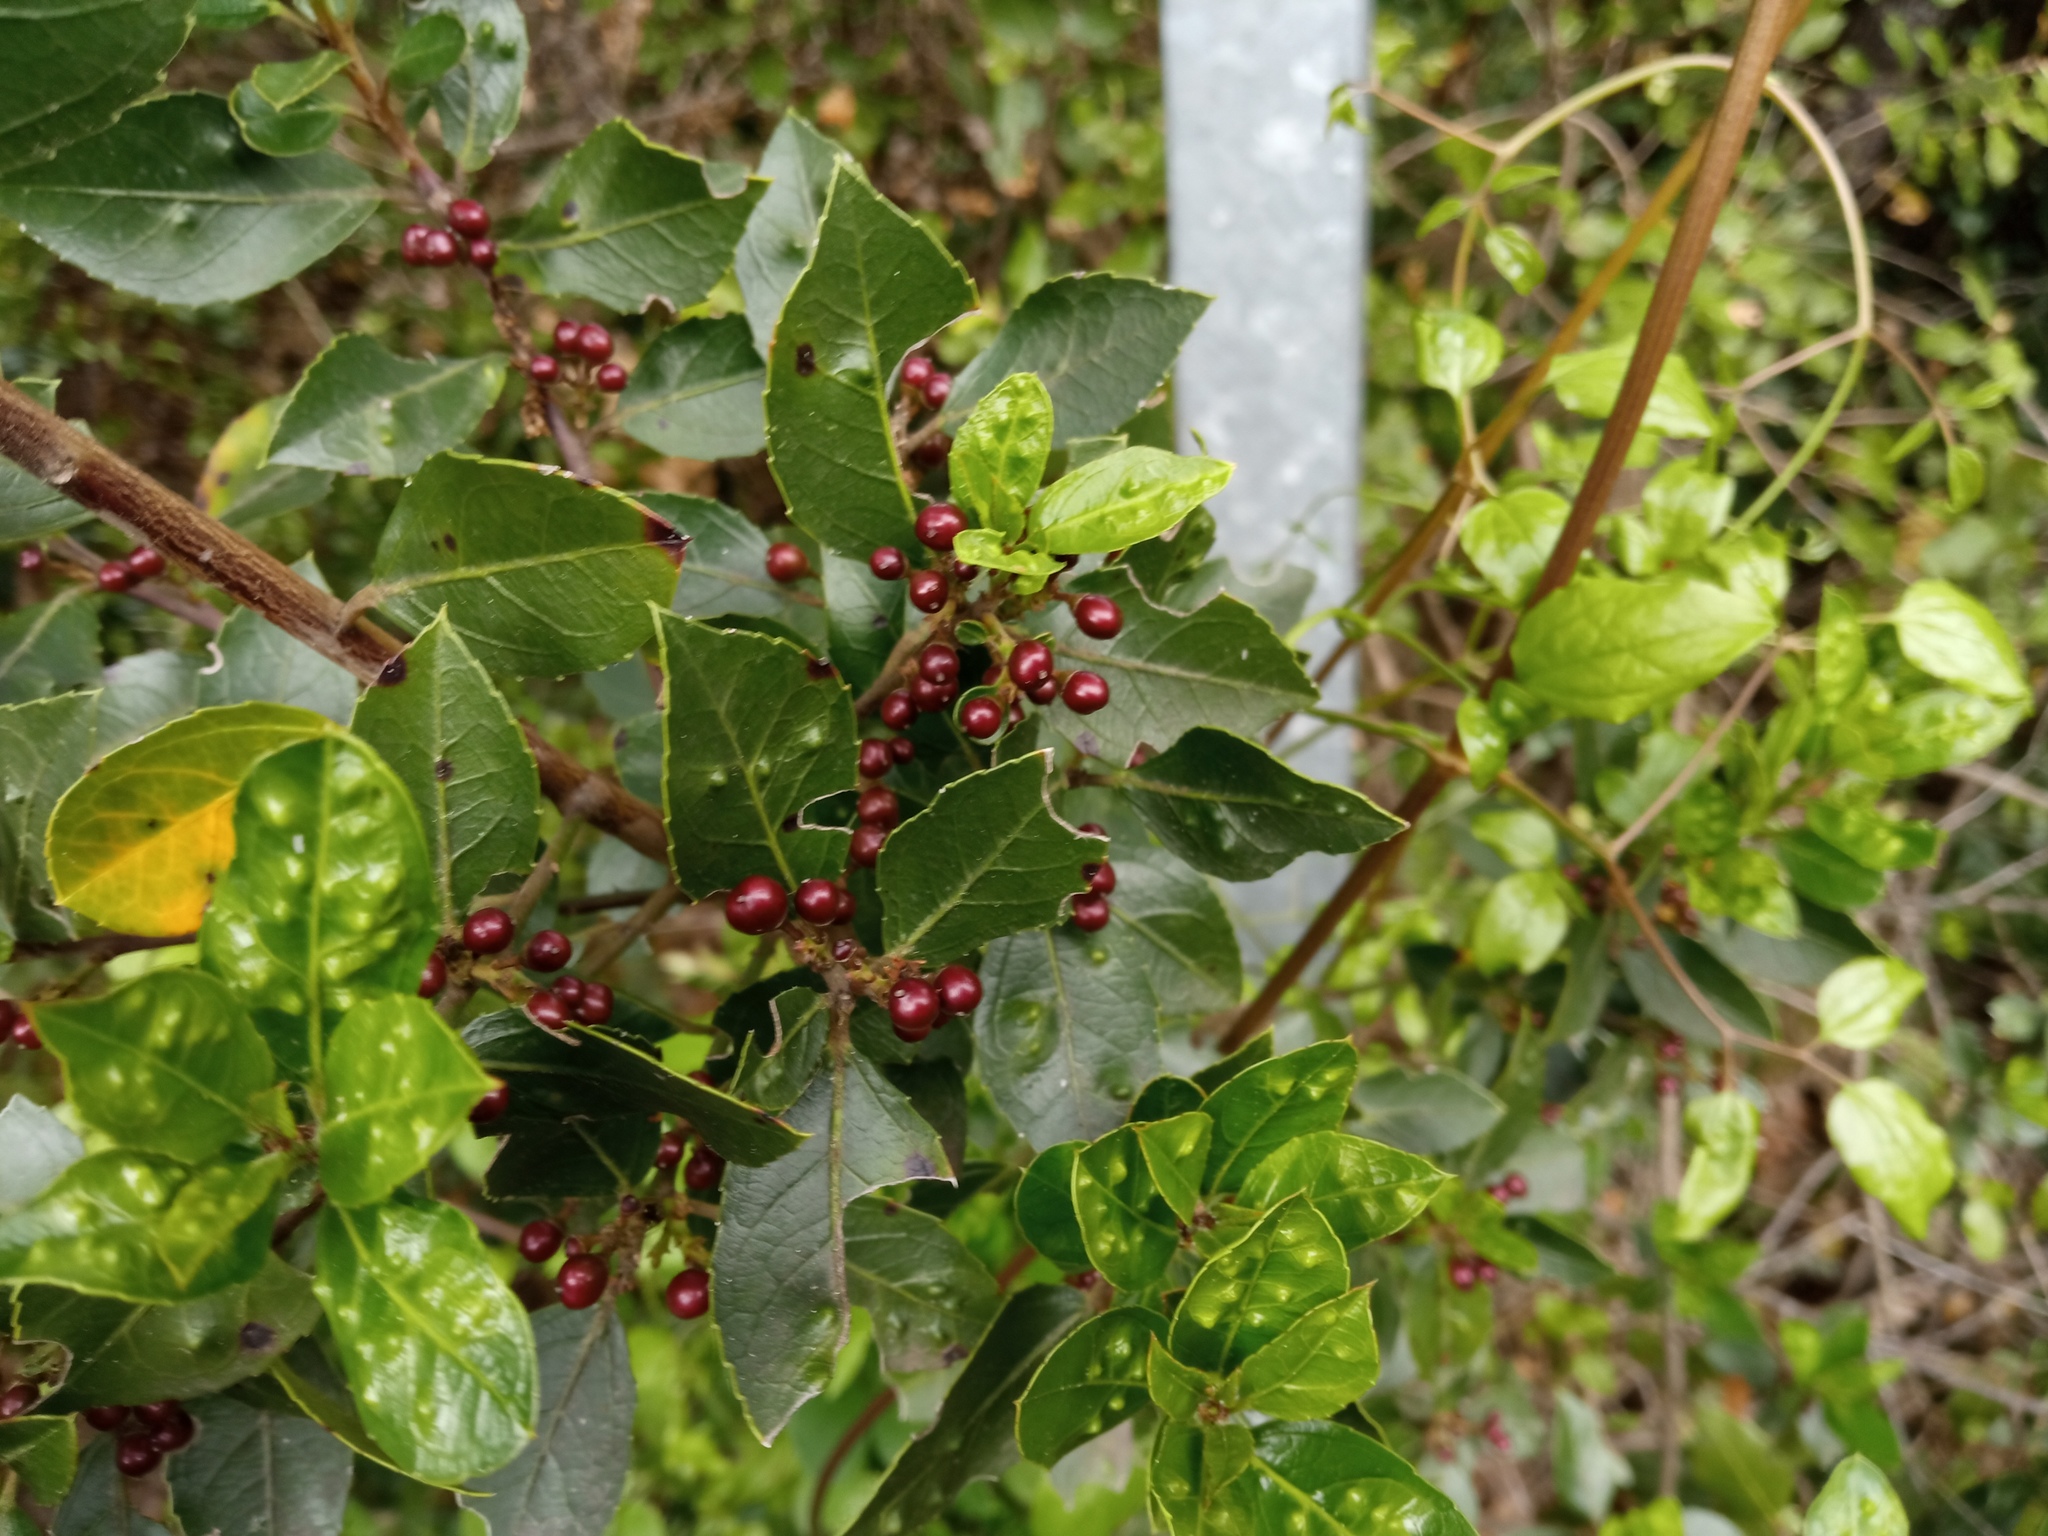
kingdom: Plantae
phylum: Tracheophyta
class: Magnoliopsida
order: Rosales
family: Rhamnaceae
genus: Rhamnus
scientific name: Rhamnus alaternus
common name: Mediterranean buckthorn
